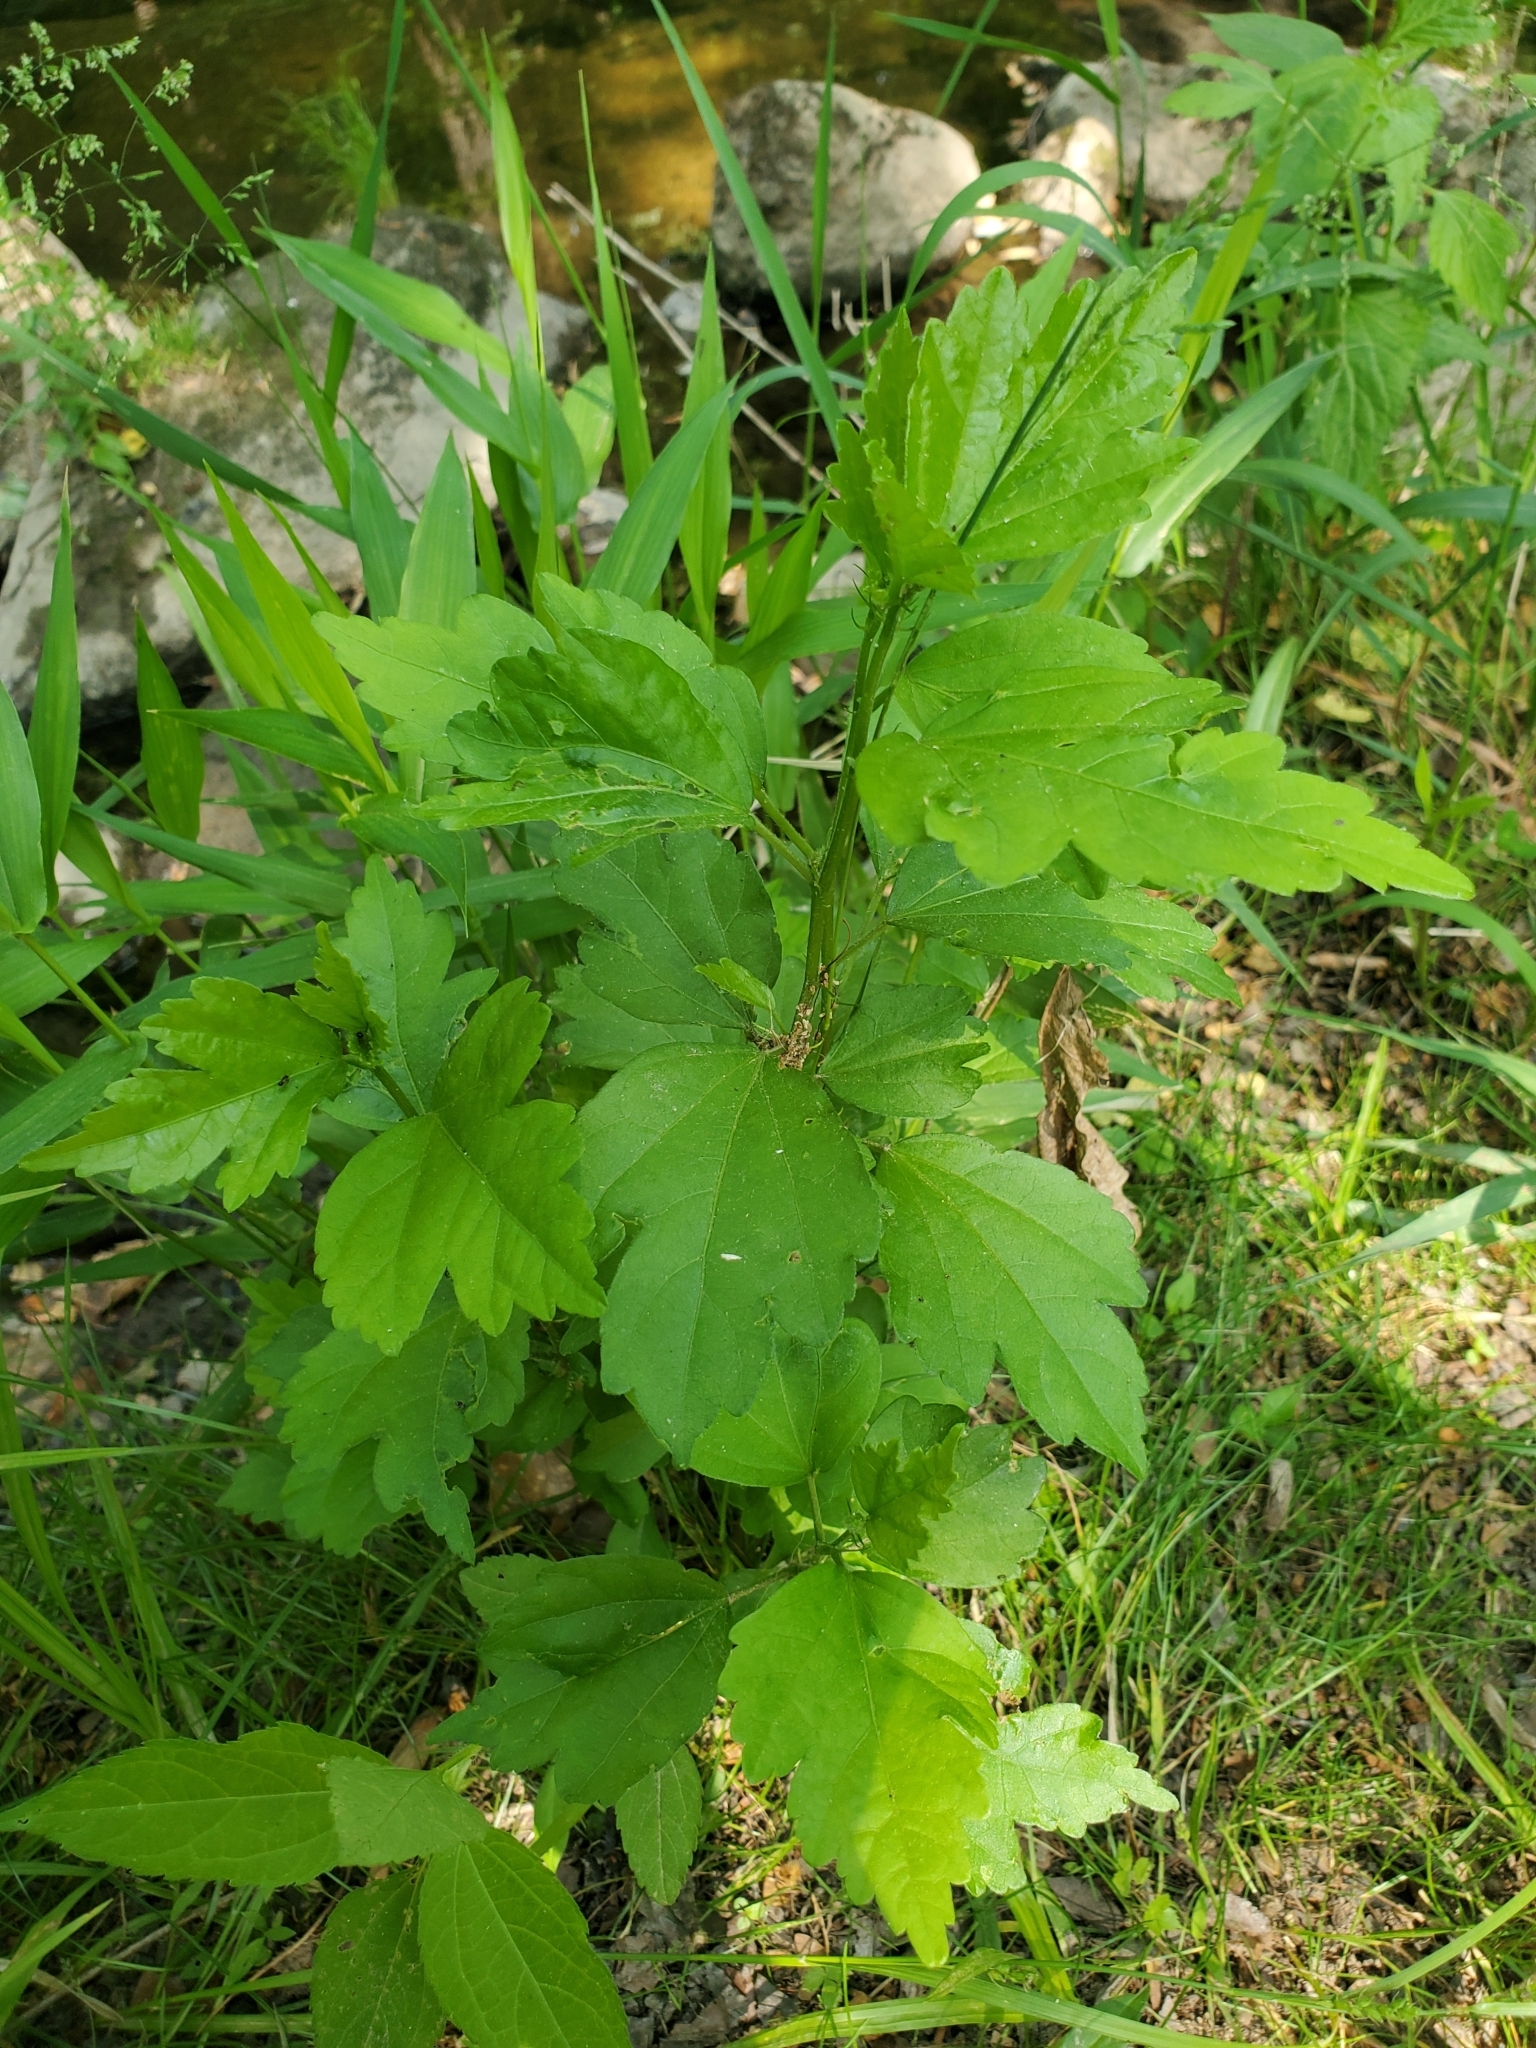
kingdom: Plantae
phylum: Tracheophyta
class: Magnoliopsida
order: Malvales
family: Malvaceae
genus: Hibiscus
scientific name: Hibiscus syriacus
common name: Syrian ketmia
